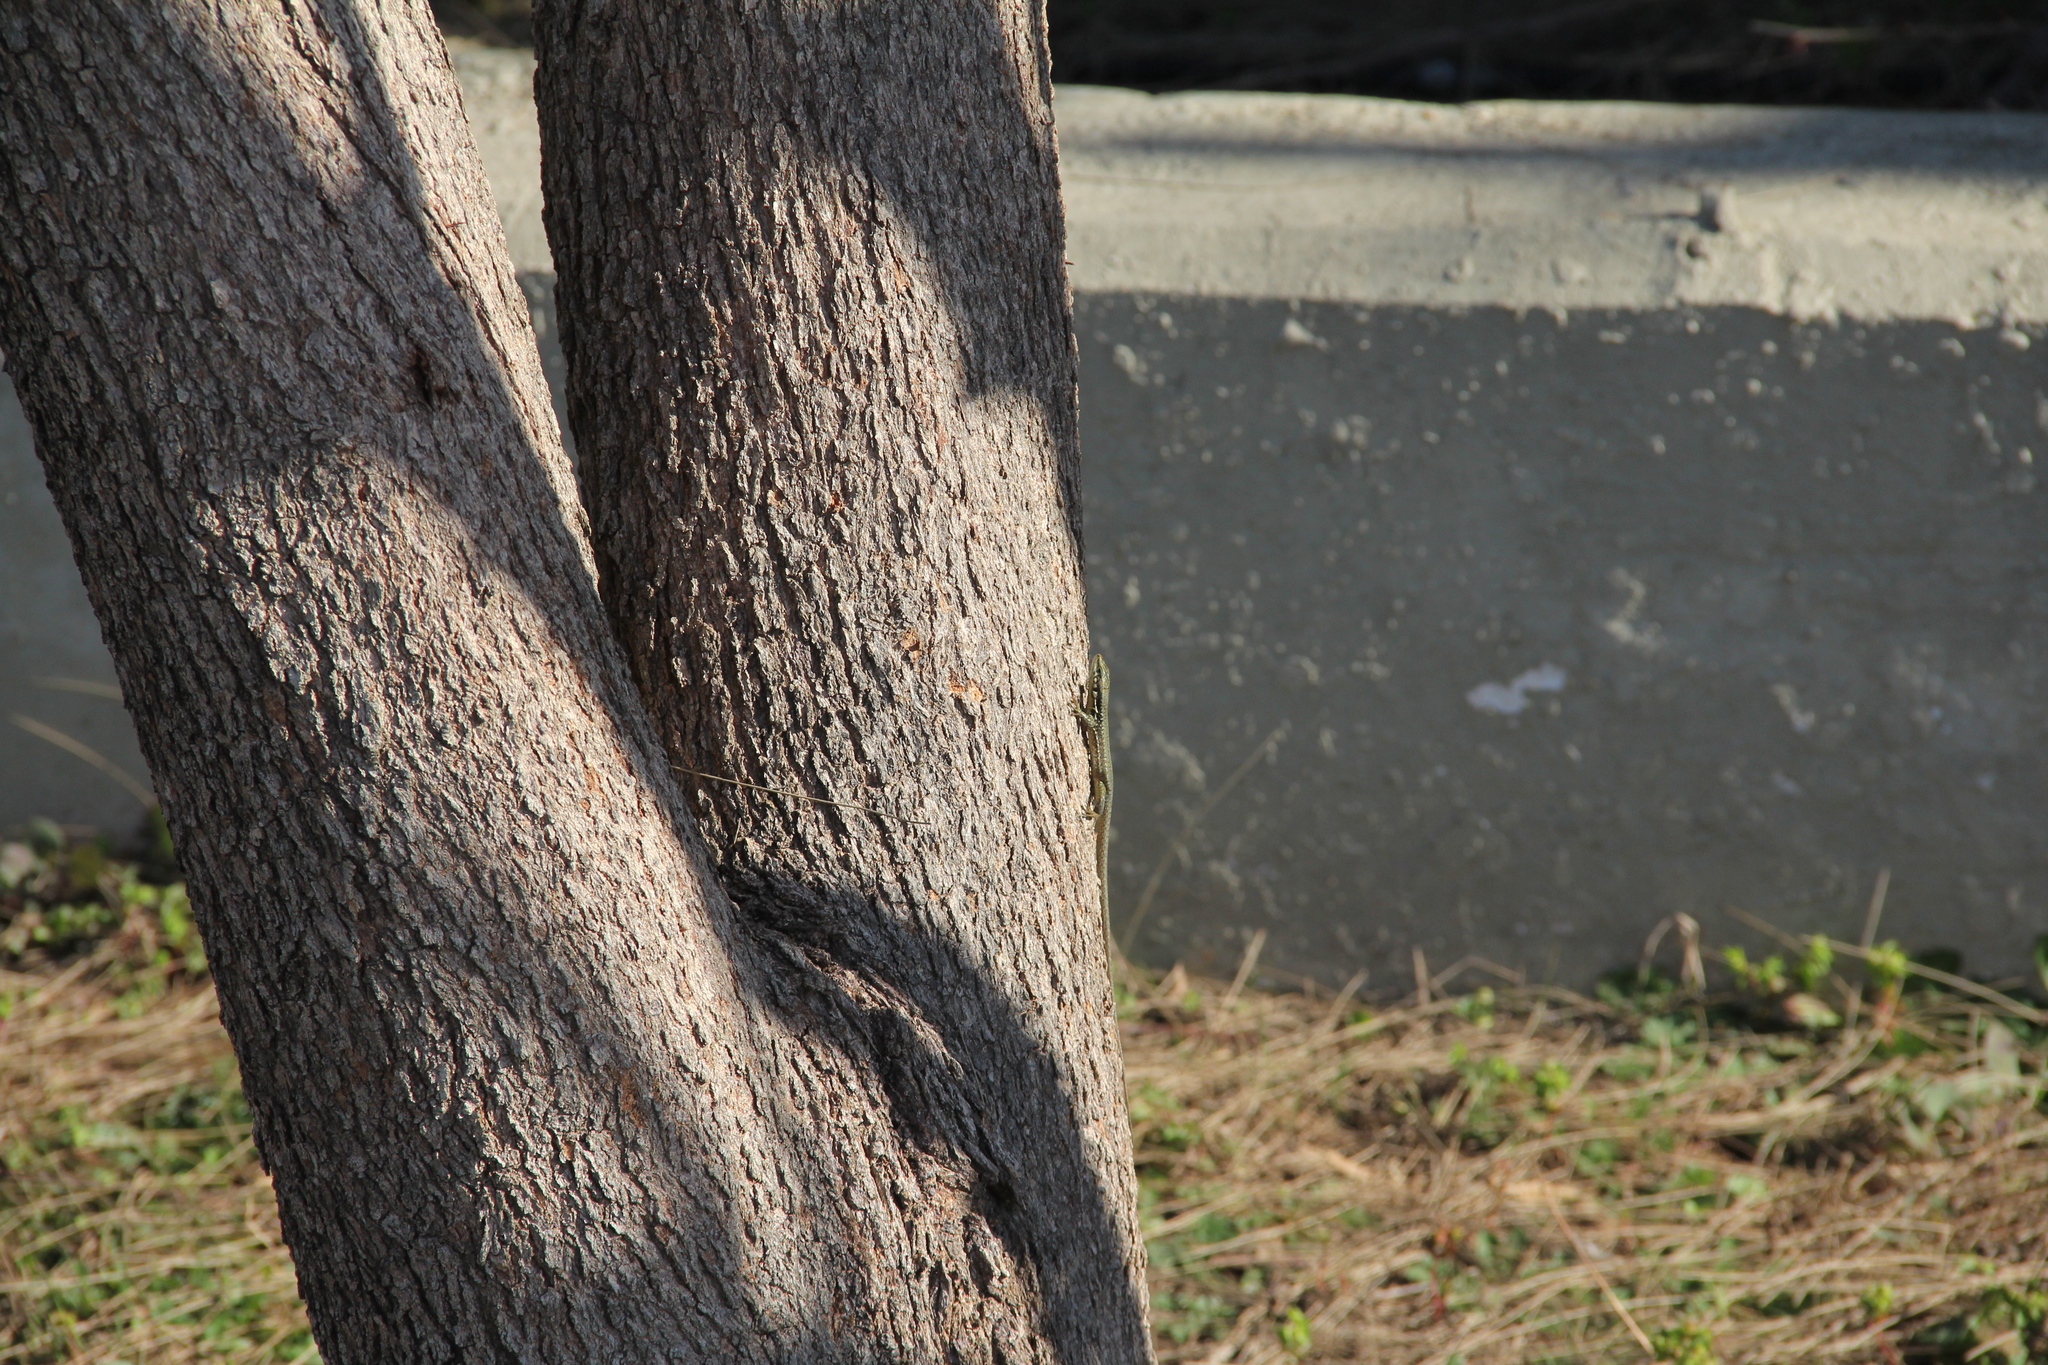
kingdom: Animalia
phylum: Chordata
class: Squamata
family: Lacertidae
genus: Phoenicolacerta
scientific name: Phoenicolacerta laevis
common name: Lebanon lizard
